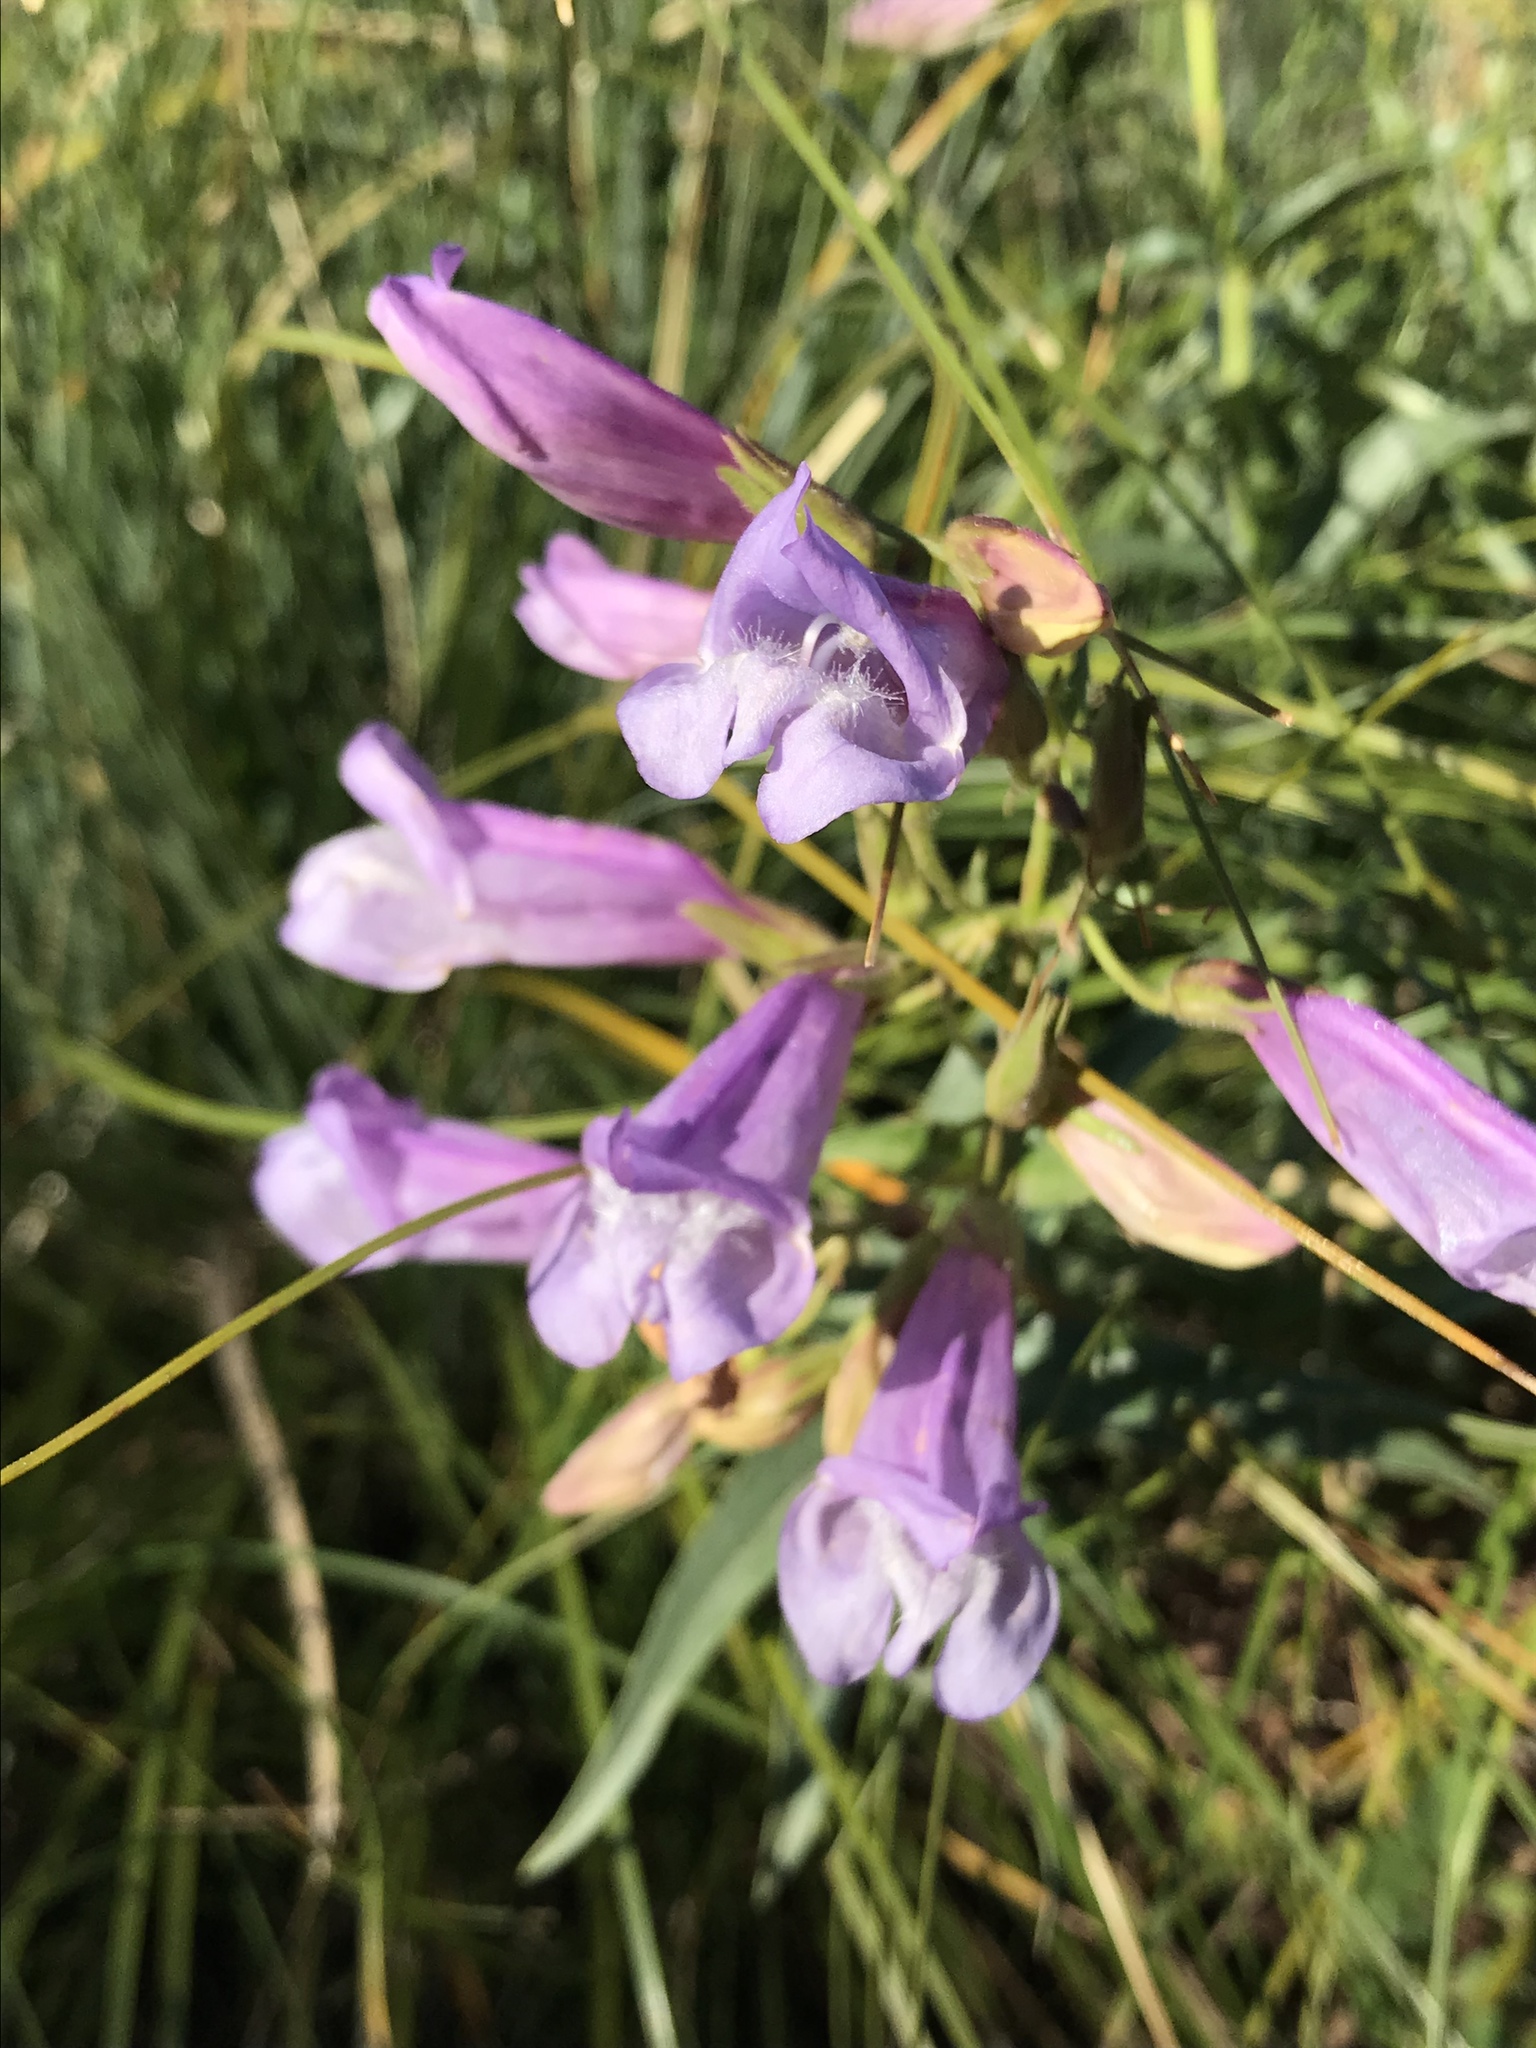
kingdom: Plantae
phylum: Tracheophyta
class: Magnoliopsida
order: Lamiales
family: Plantaginaceae
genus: Penstemon
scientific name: Penstemon lyalli
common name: Lyall's beardtongue
